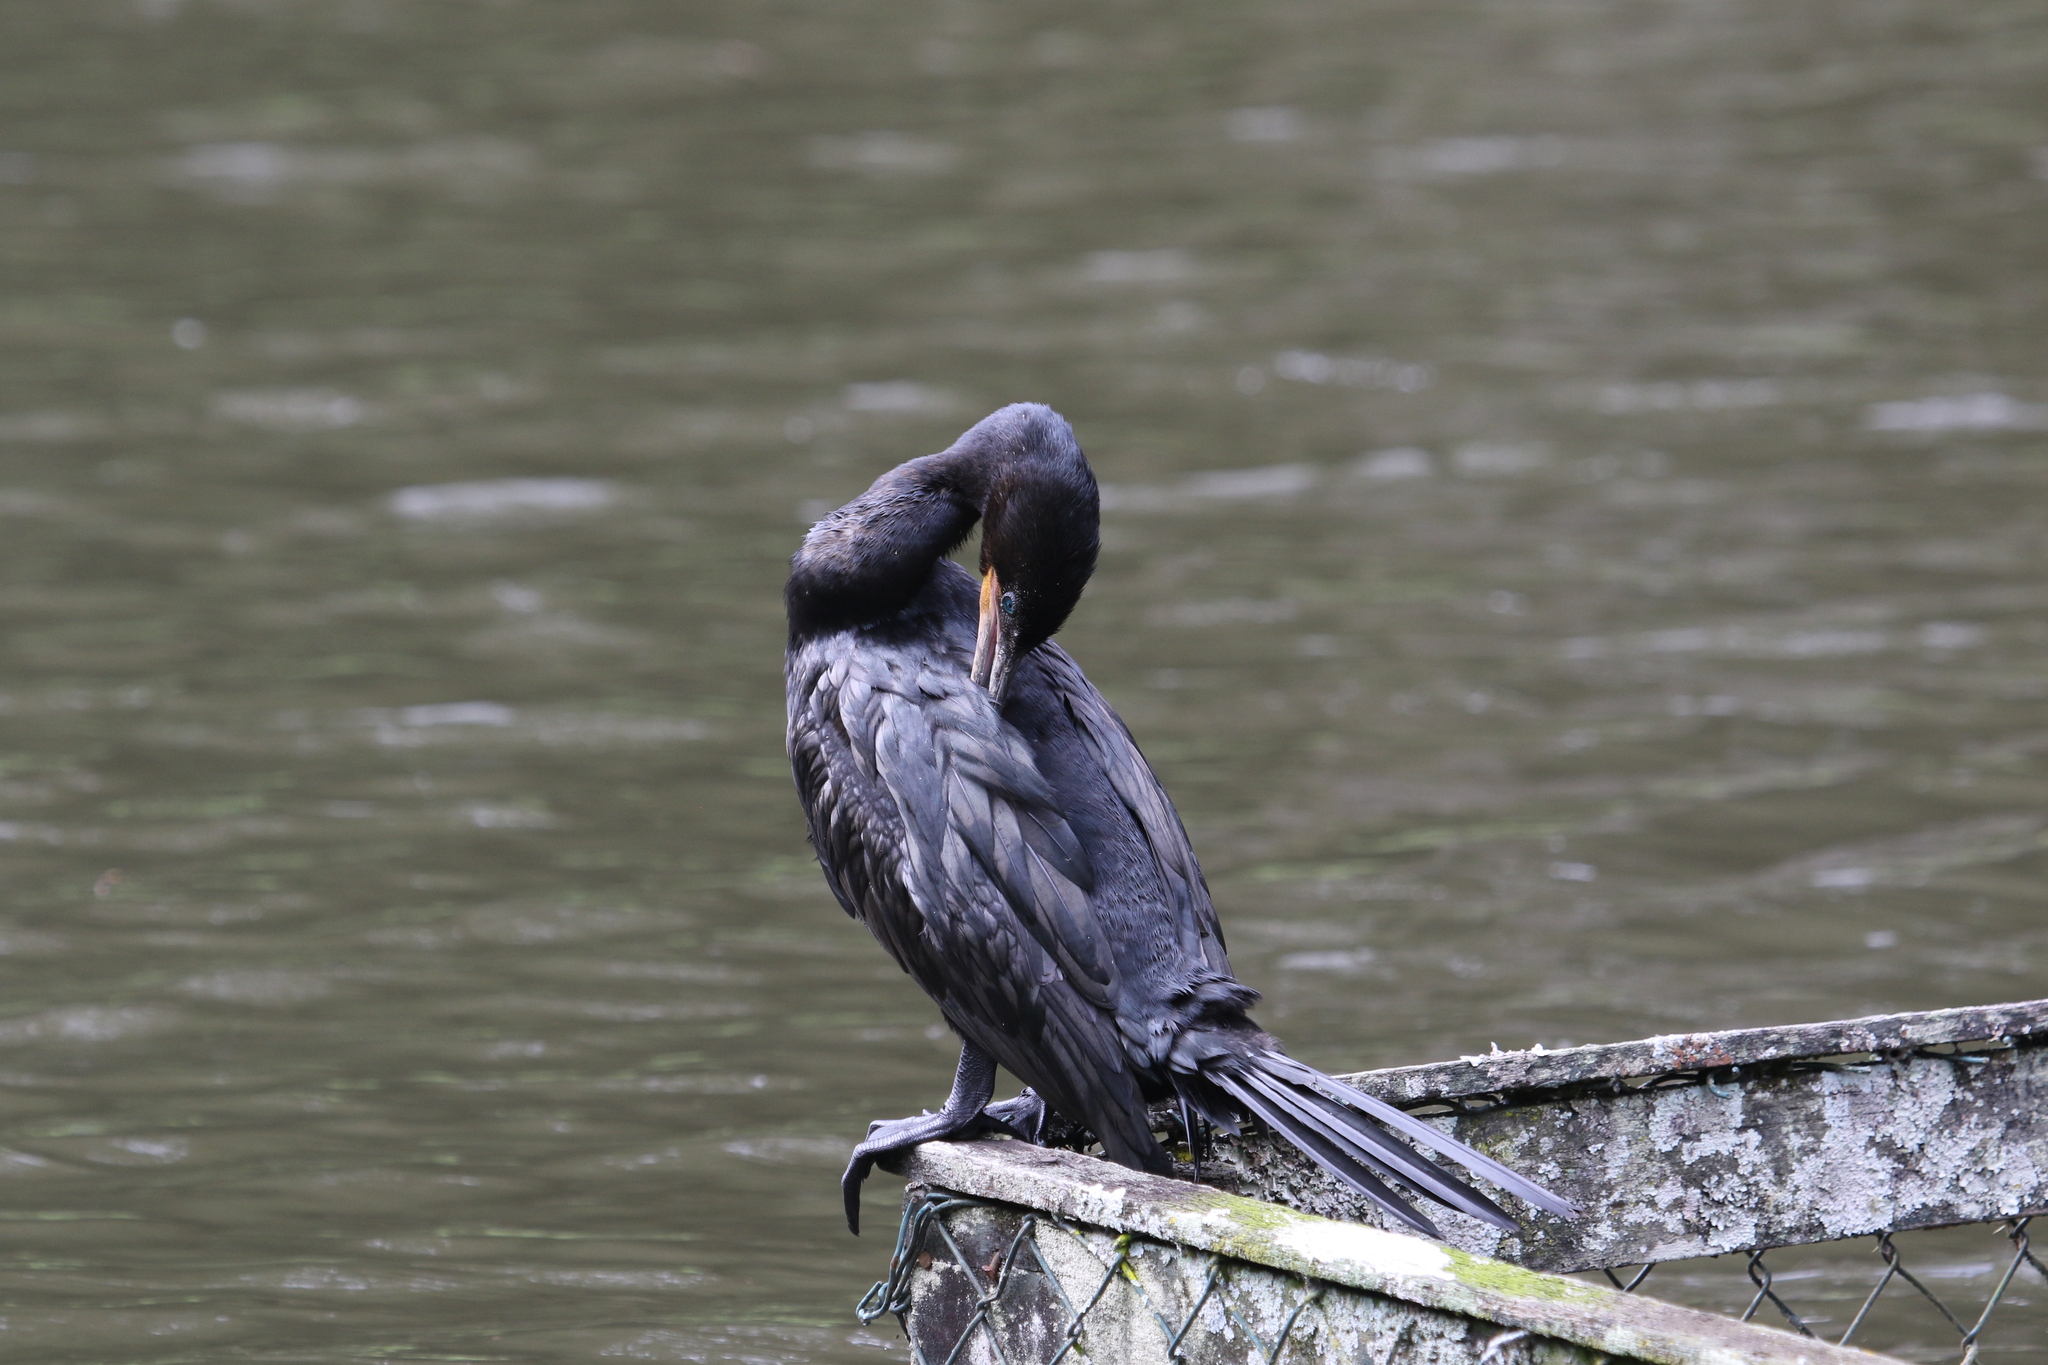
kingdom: Animalia
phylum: Chordata
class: Aves
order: Suliformes
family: Phalacrocoracidae
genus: Phalacrocorax
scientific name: Phalacrocorax brasilianus
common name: Neotropic cormorant
